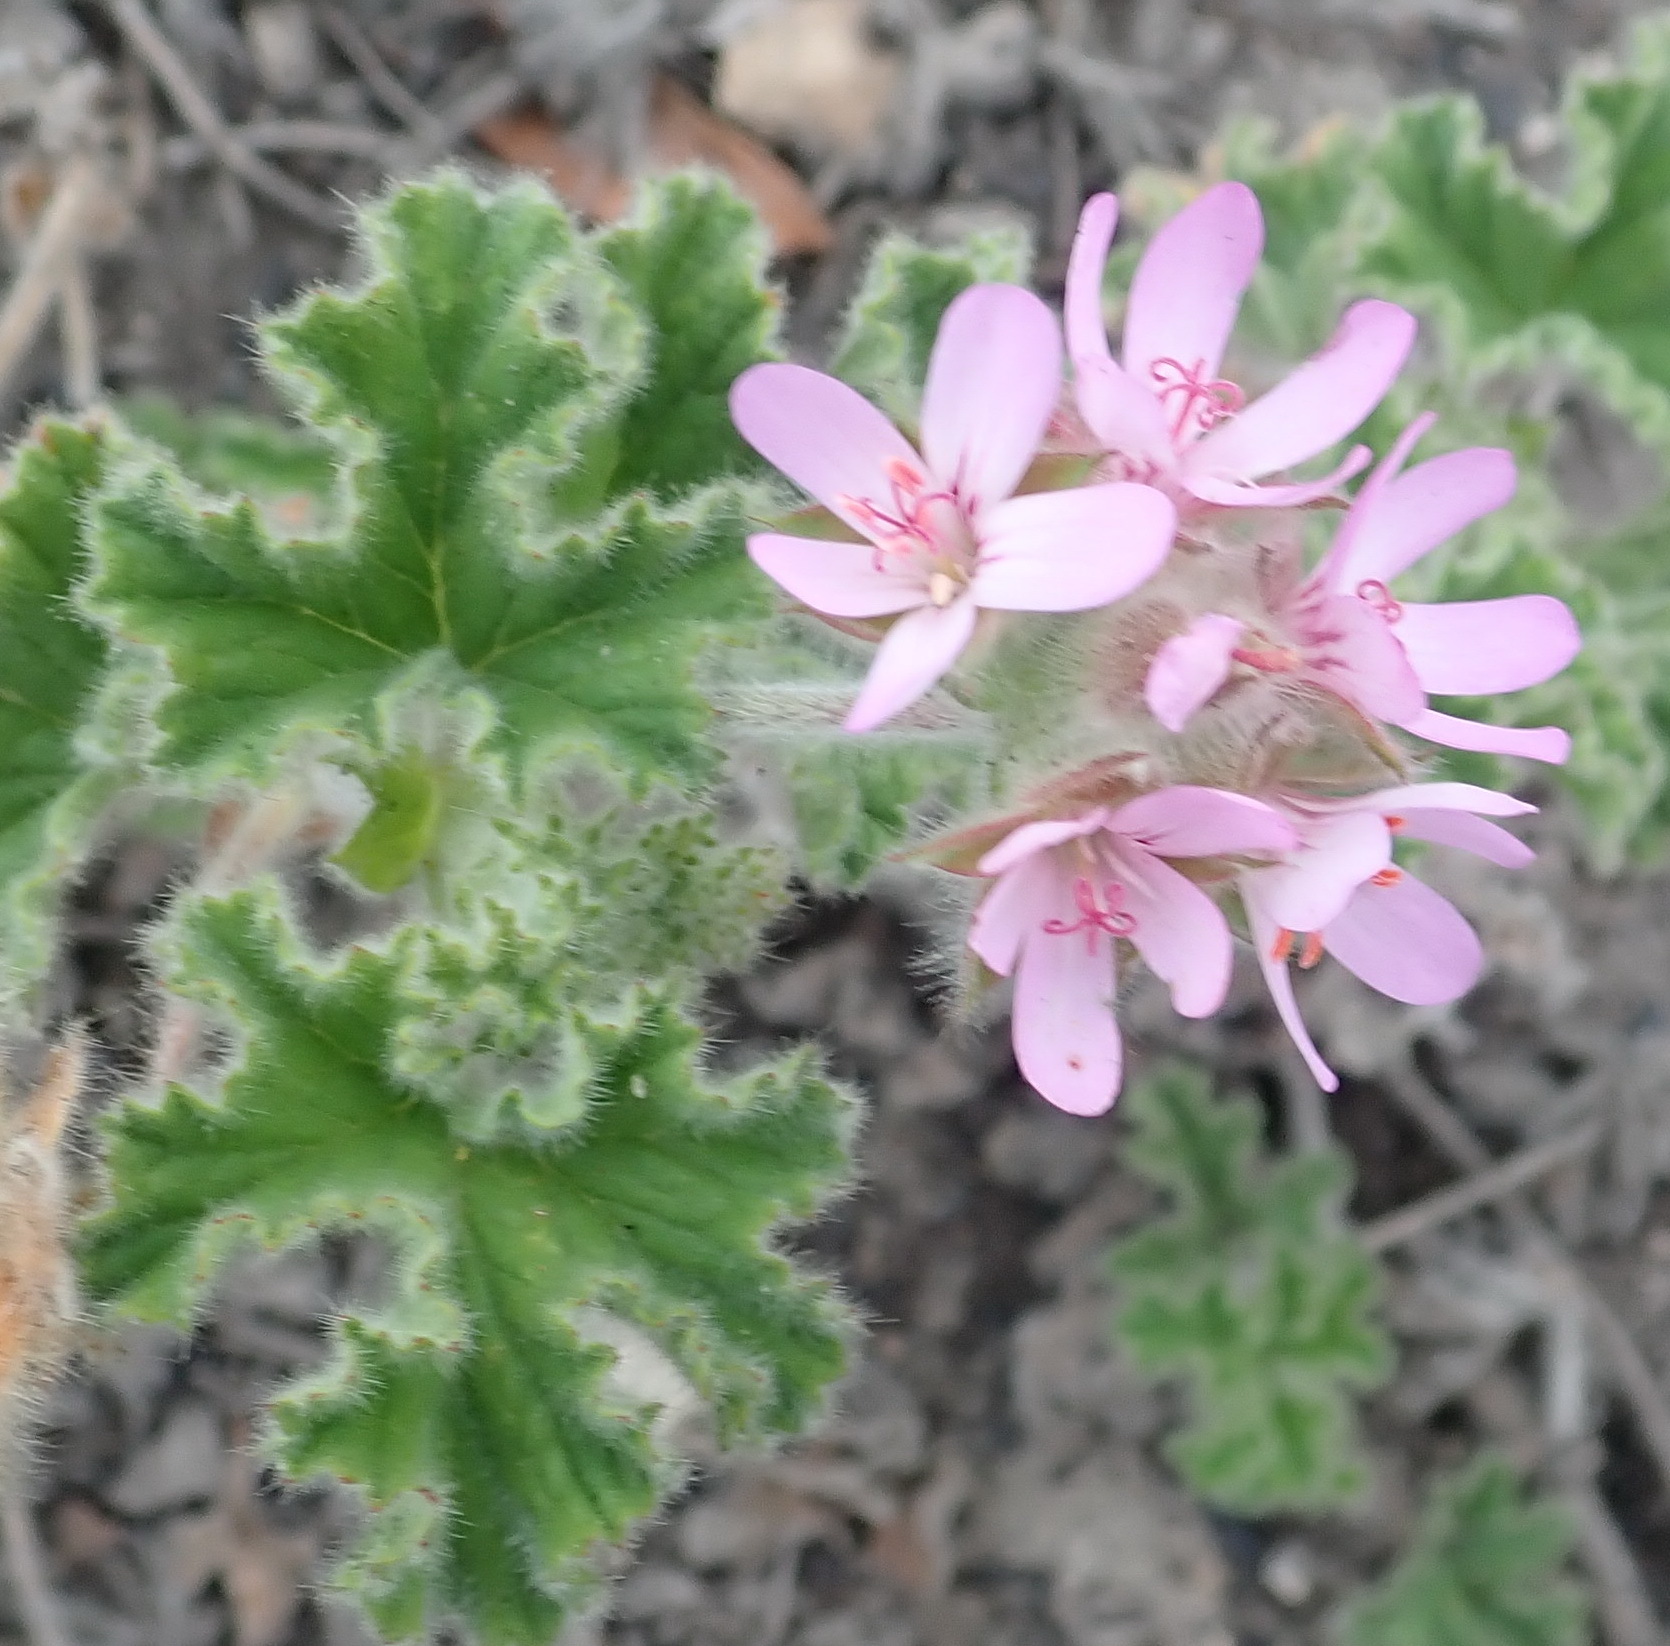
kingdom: Plantae
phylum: Tracheophyta
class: Magnoliopsida
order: Geraniales
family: Geraniaceae
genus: Pelargonium
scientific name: Pelargonium capitatum
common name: Rose scented geranium
